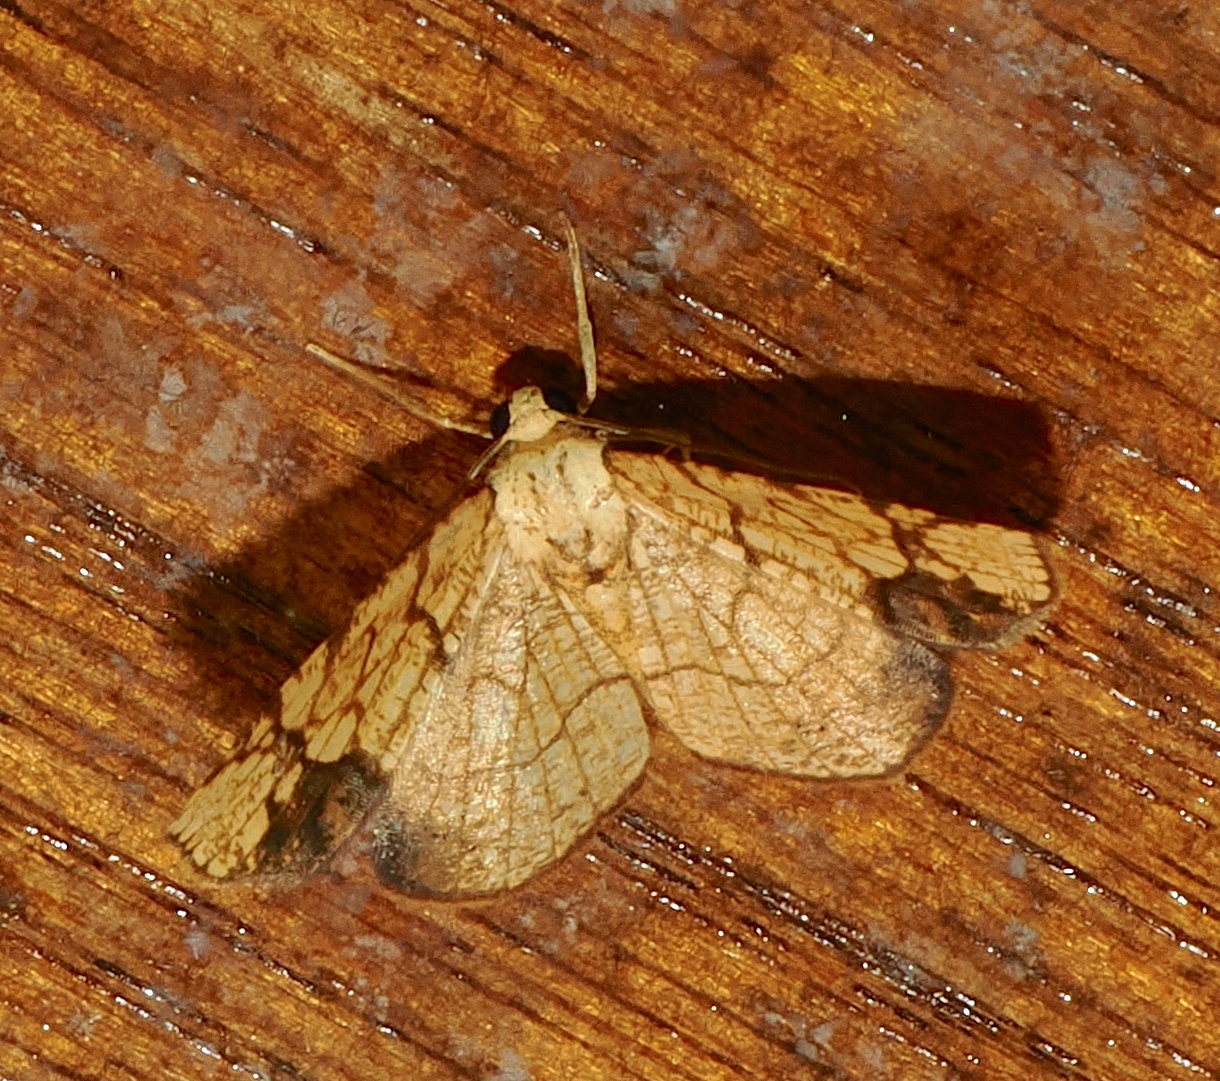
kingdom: Animalia
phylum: Arthropoda
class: Insecta
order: Lepidoptera
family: Geometridae
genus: Nematocampa
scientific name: Nematocampa straminea
